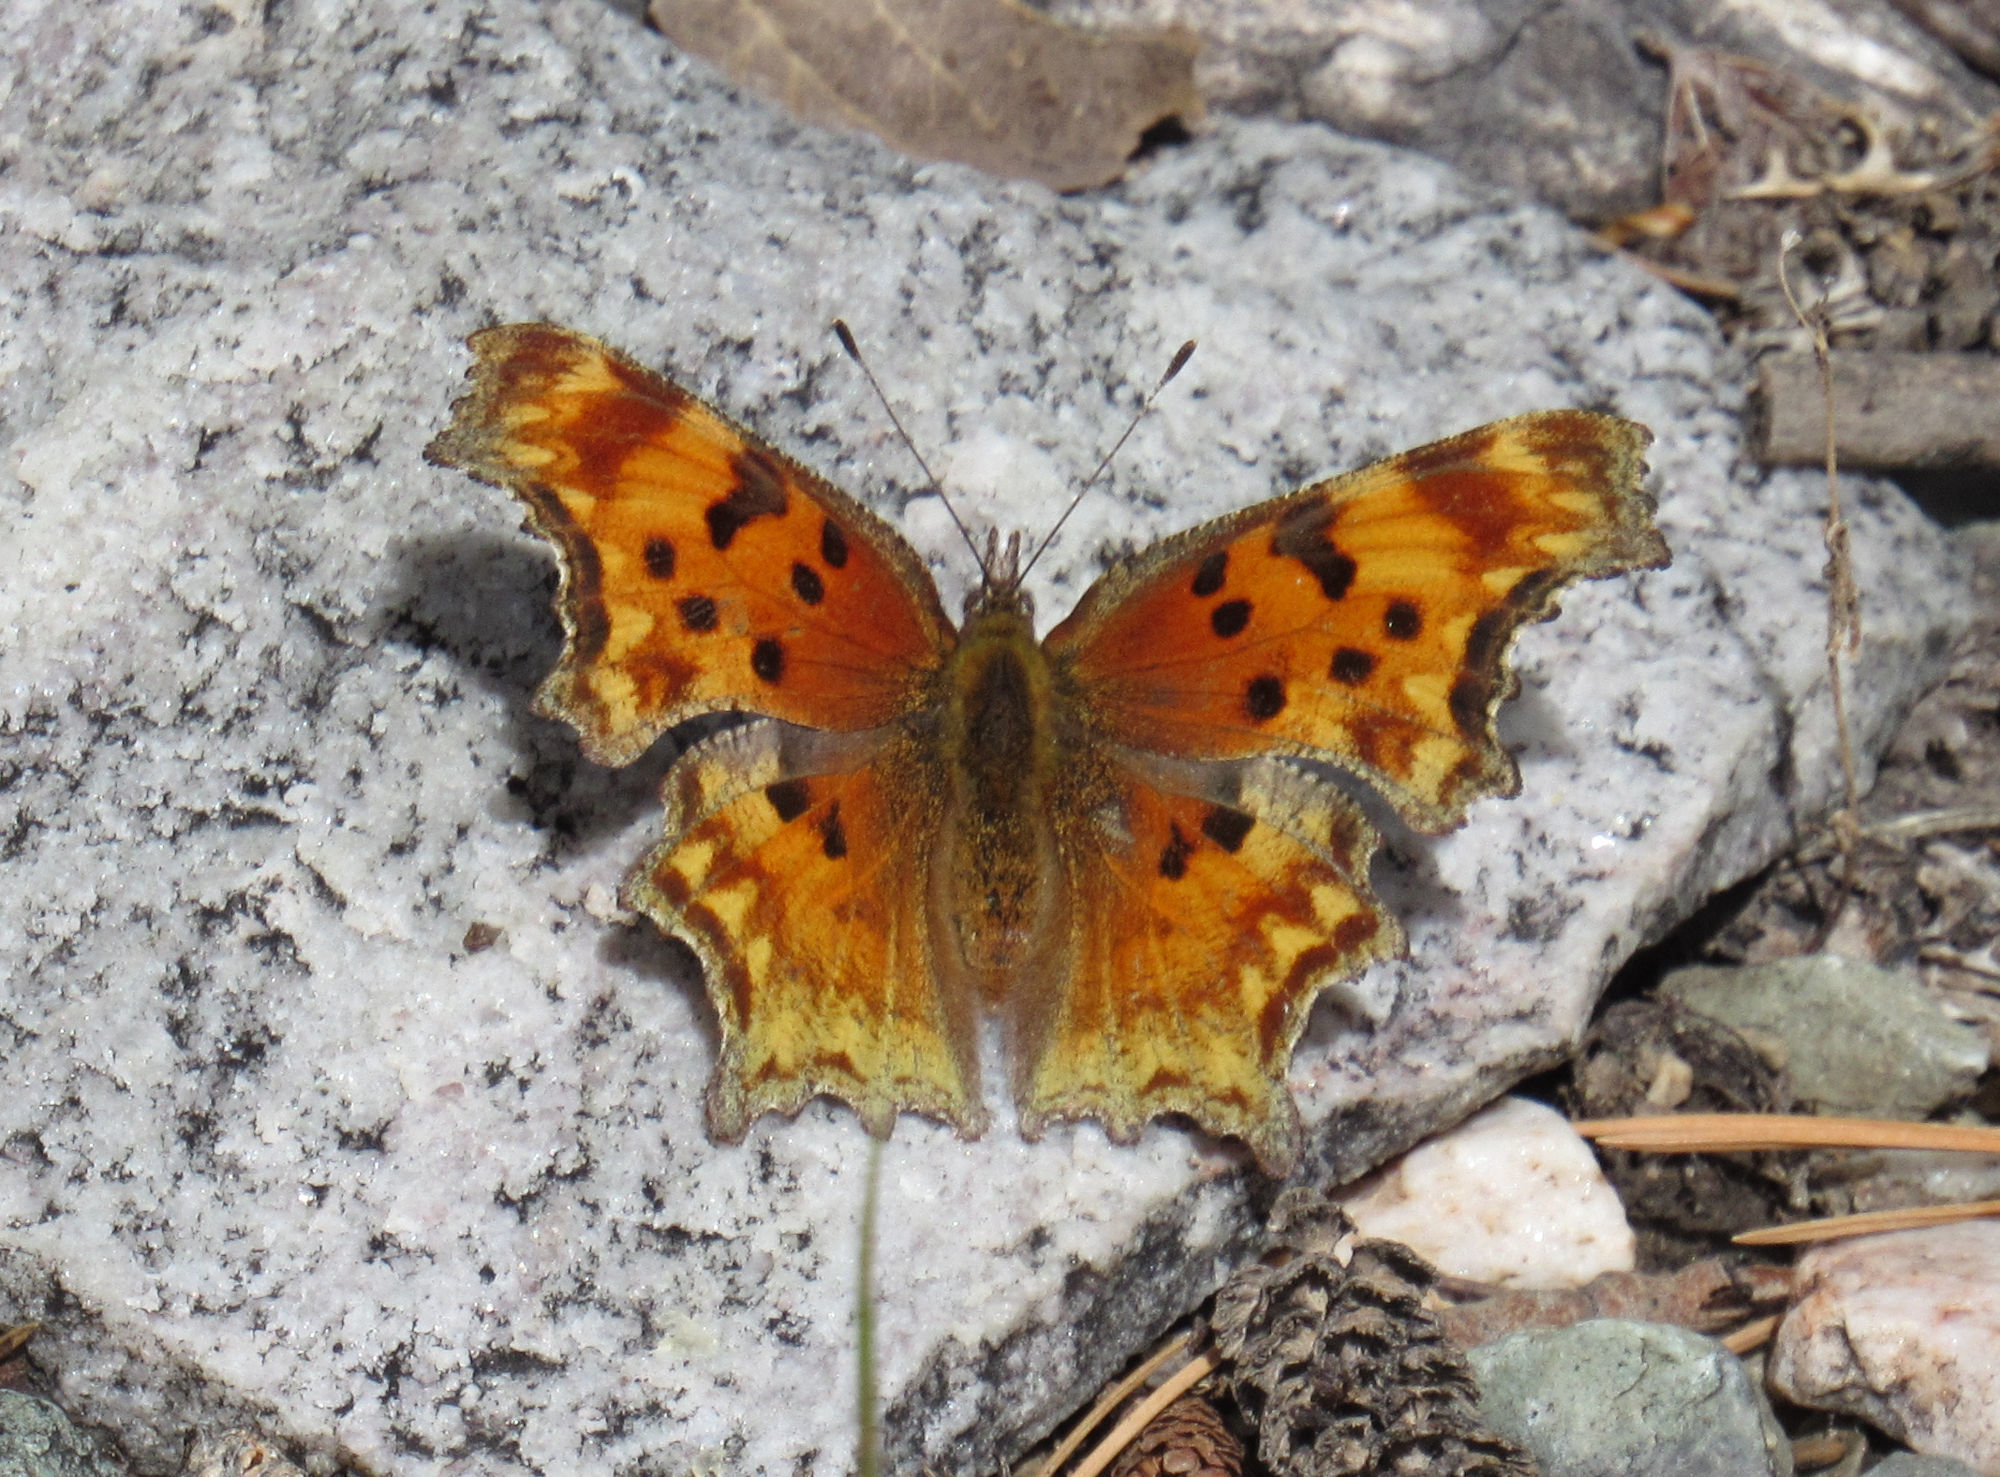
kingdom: Animalia
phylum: Arthropoda
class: Insecta
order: Lepidoptera
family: Nymphalidae
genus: Polygonia
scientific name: Polygonia gracilis
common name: Hoary comma
